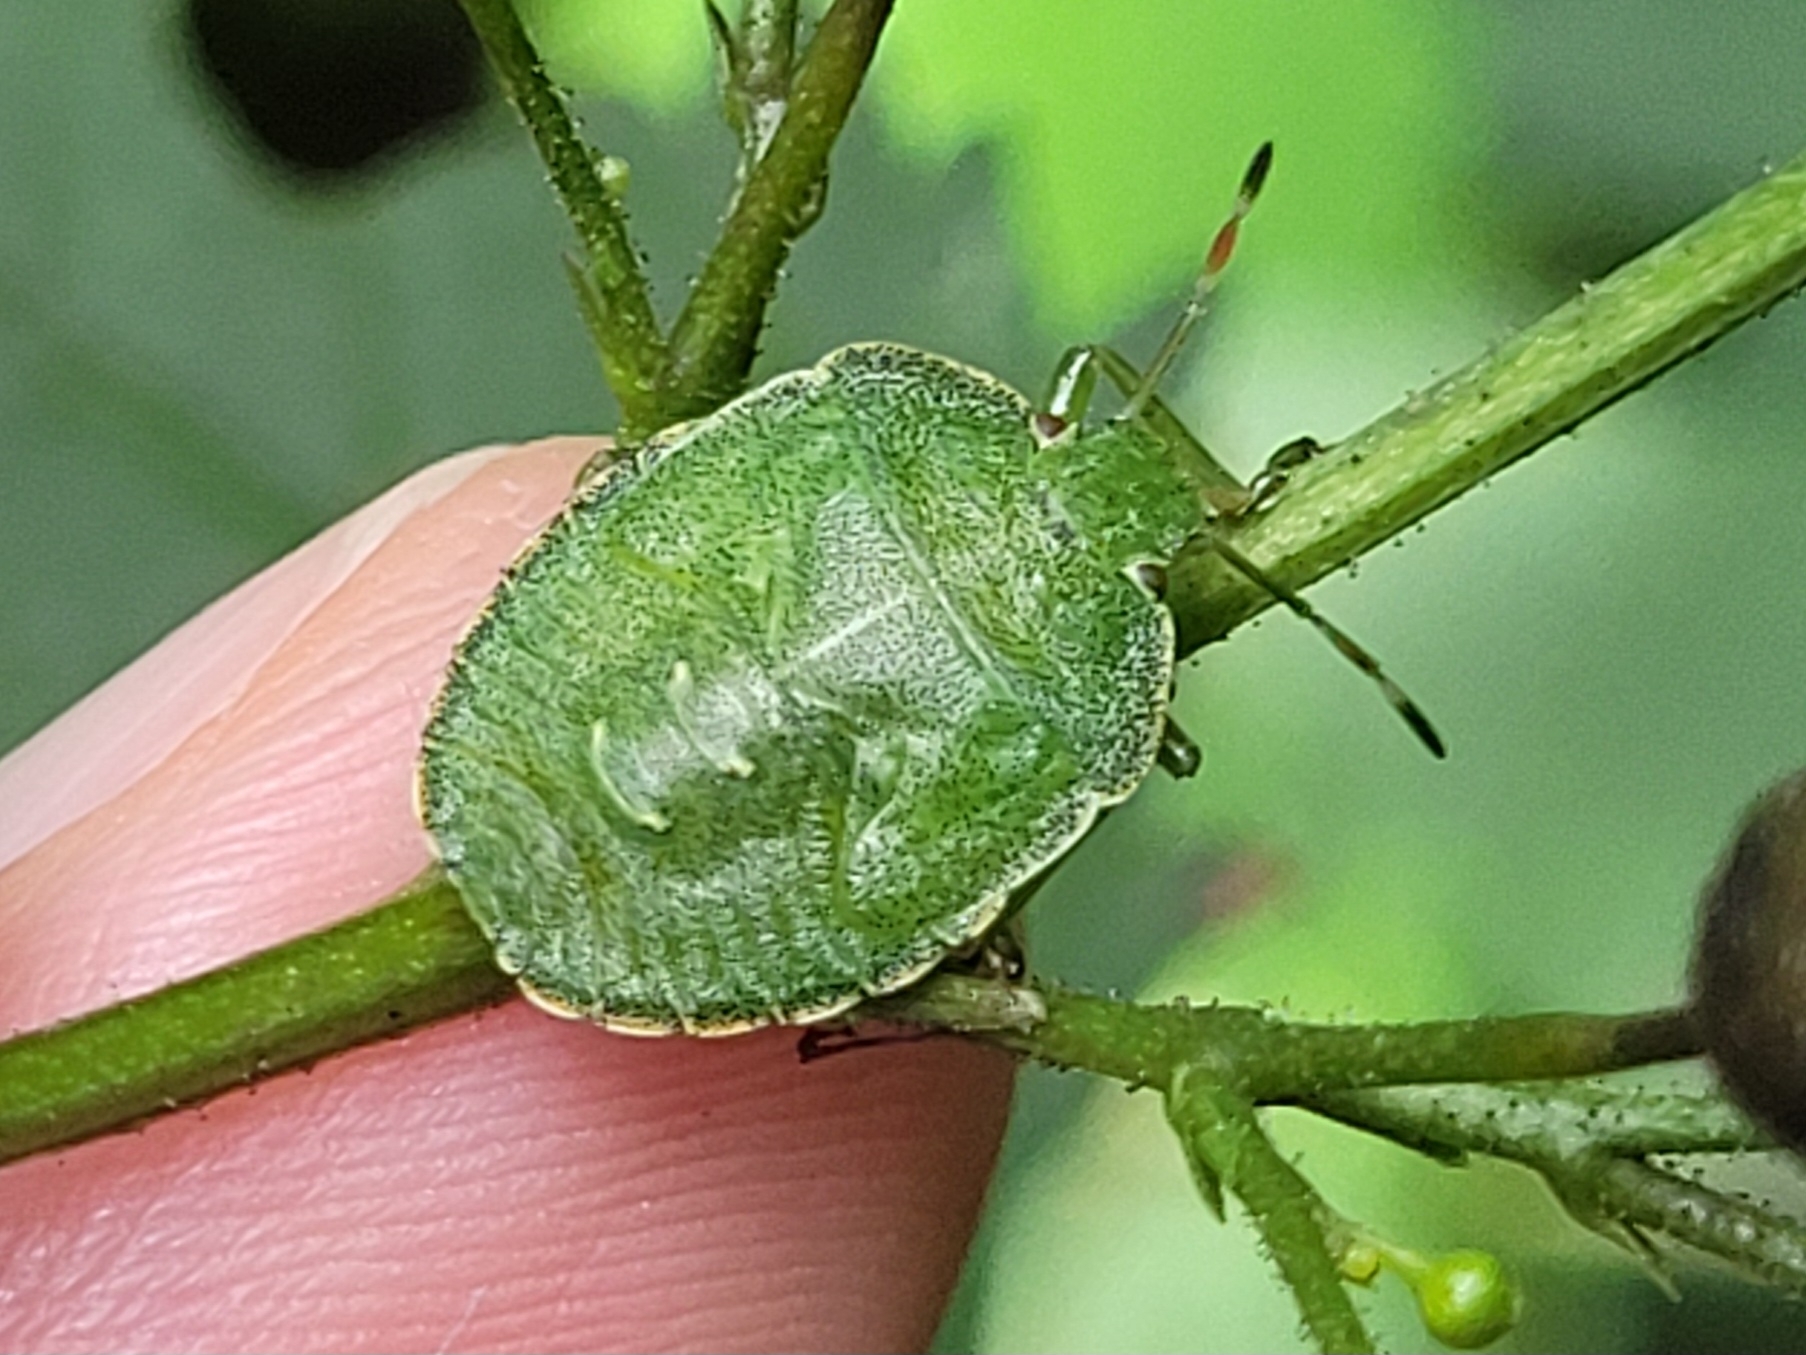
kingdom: Animalia
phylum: Arthropoda
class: Insecta
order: Hemiptera
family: Pentatomidae
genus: Palomena
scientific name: Palomena prasina
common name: Green shieldbug
